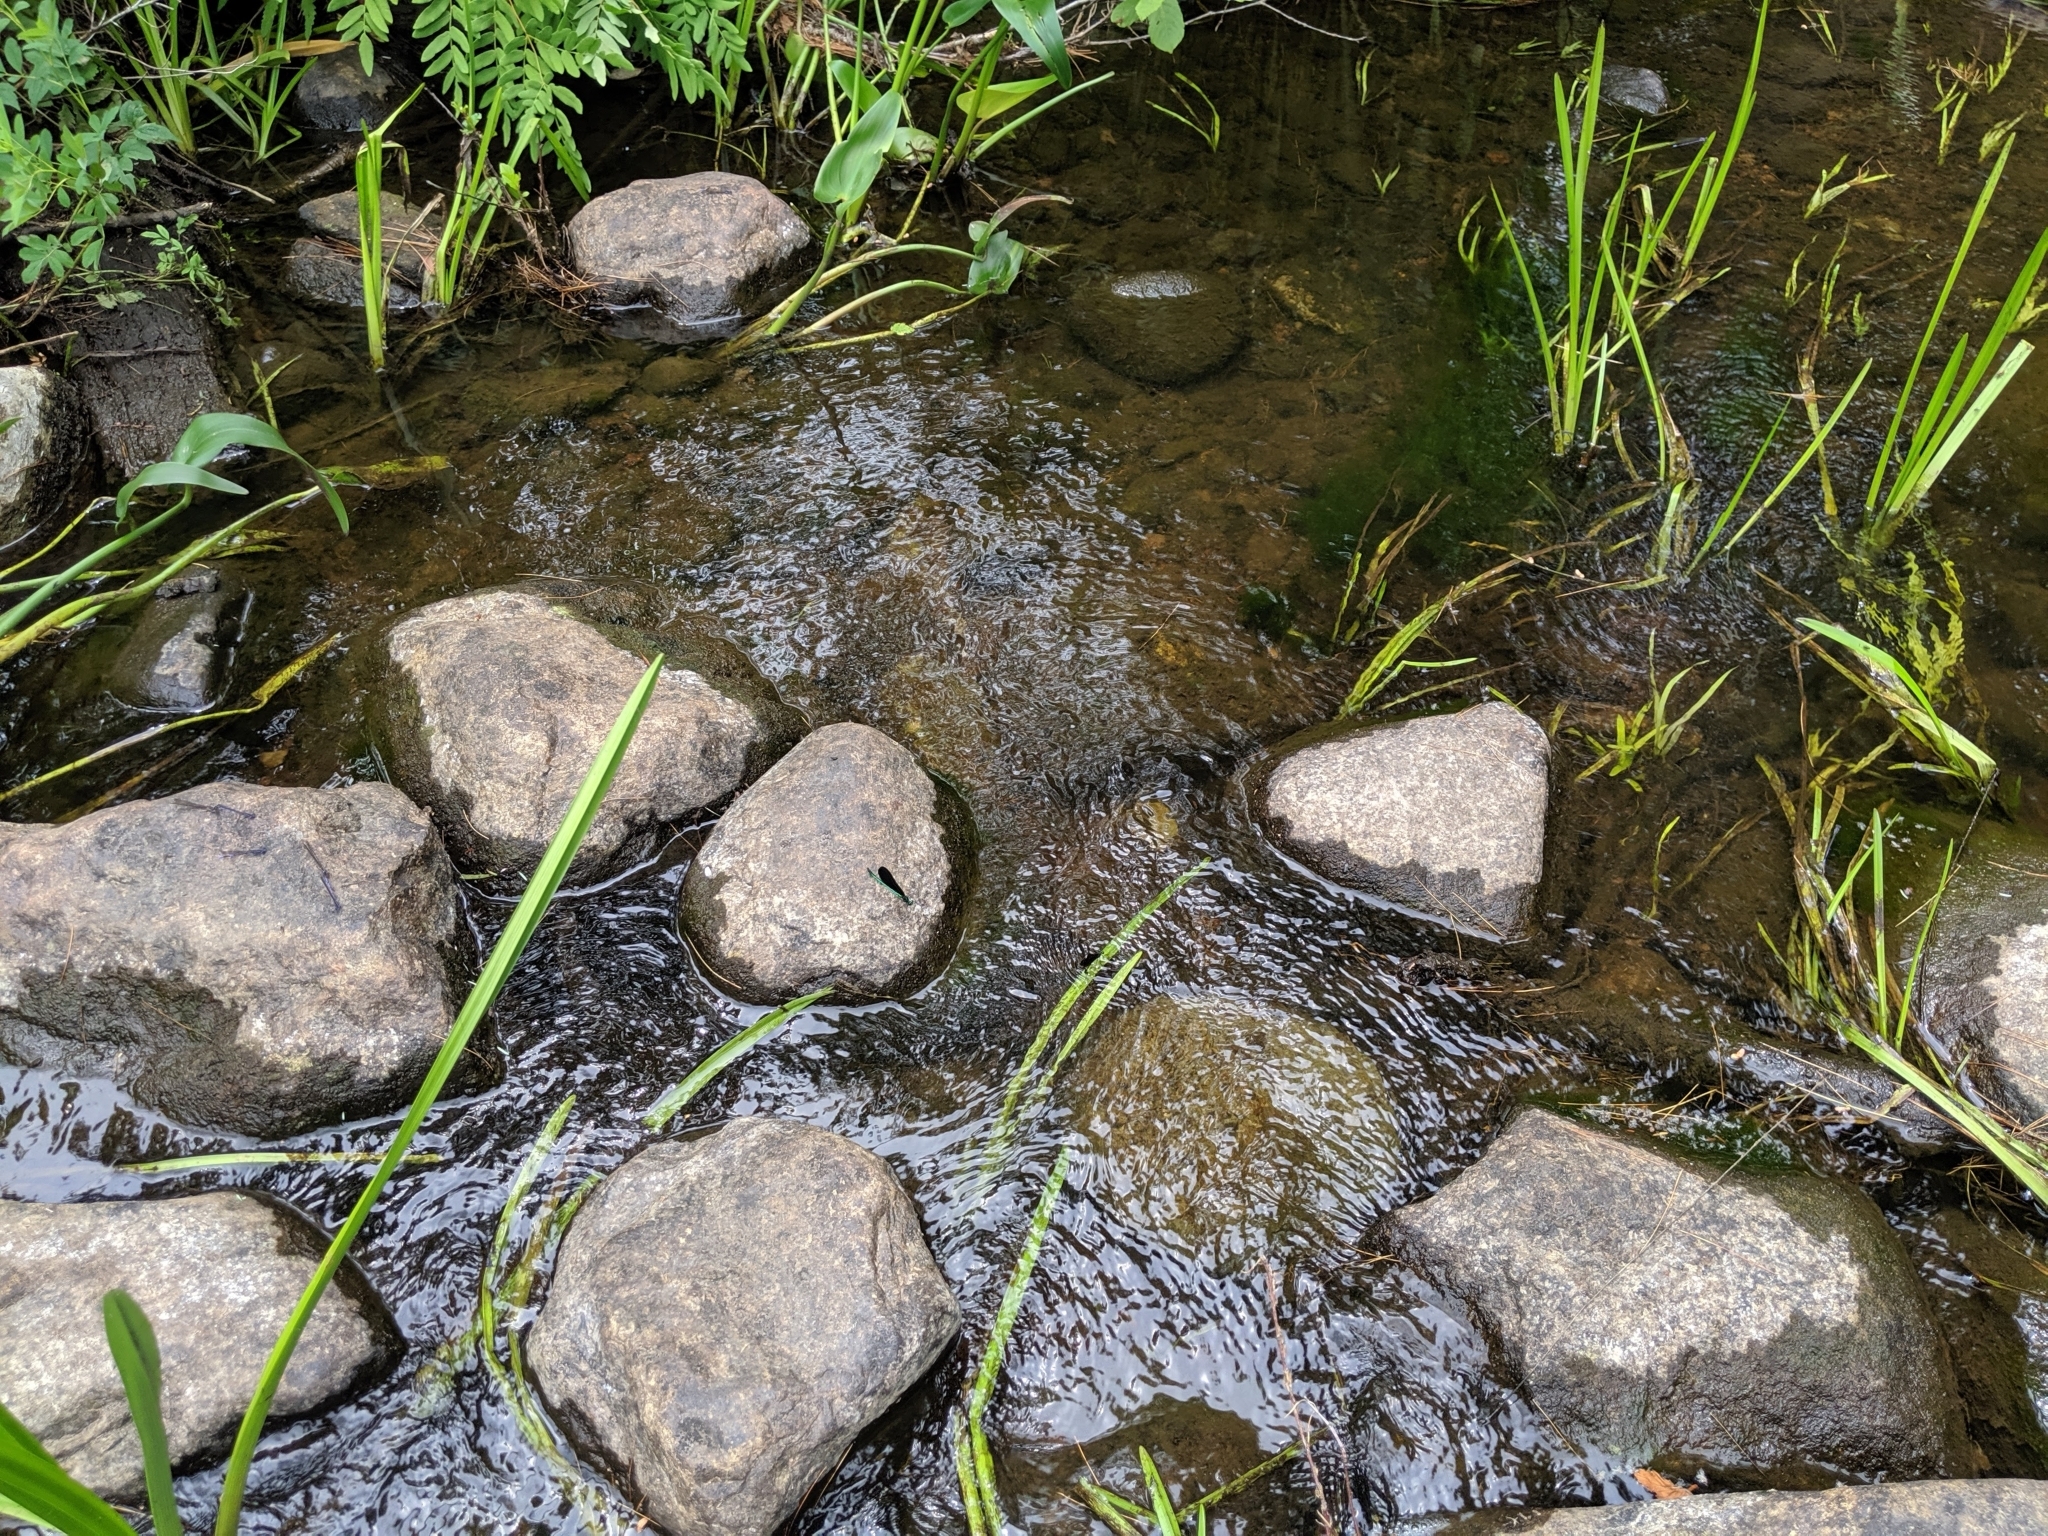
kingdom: Animalia
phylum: Arthropoda
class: Insecta
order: Odonata
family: Calopterygidae
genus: Calopteryx
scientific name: Calopteryx maculata
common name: Ebony jewelwing
